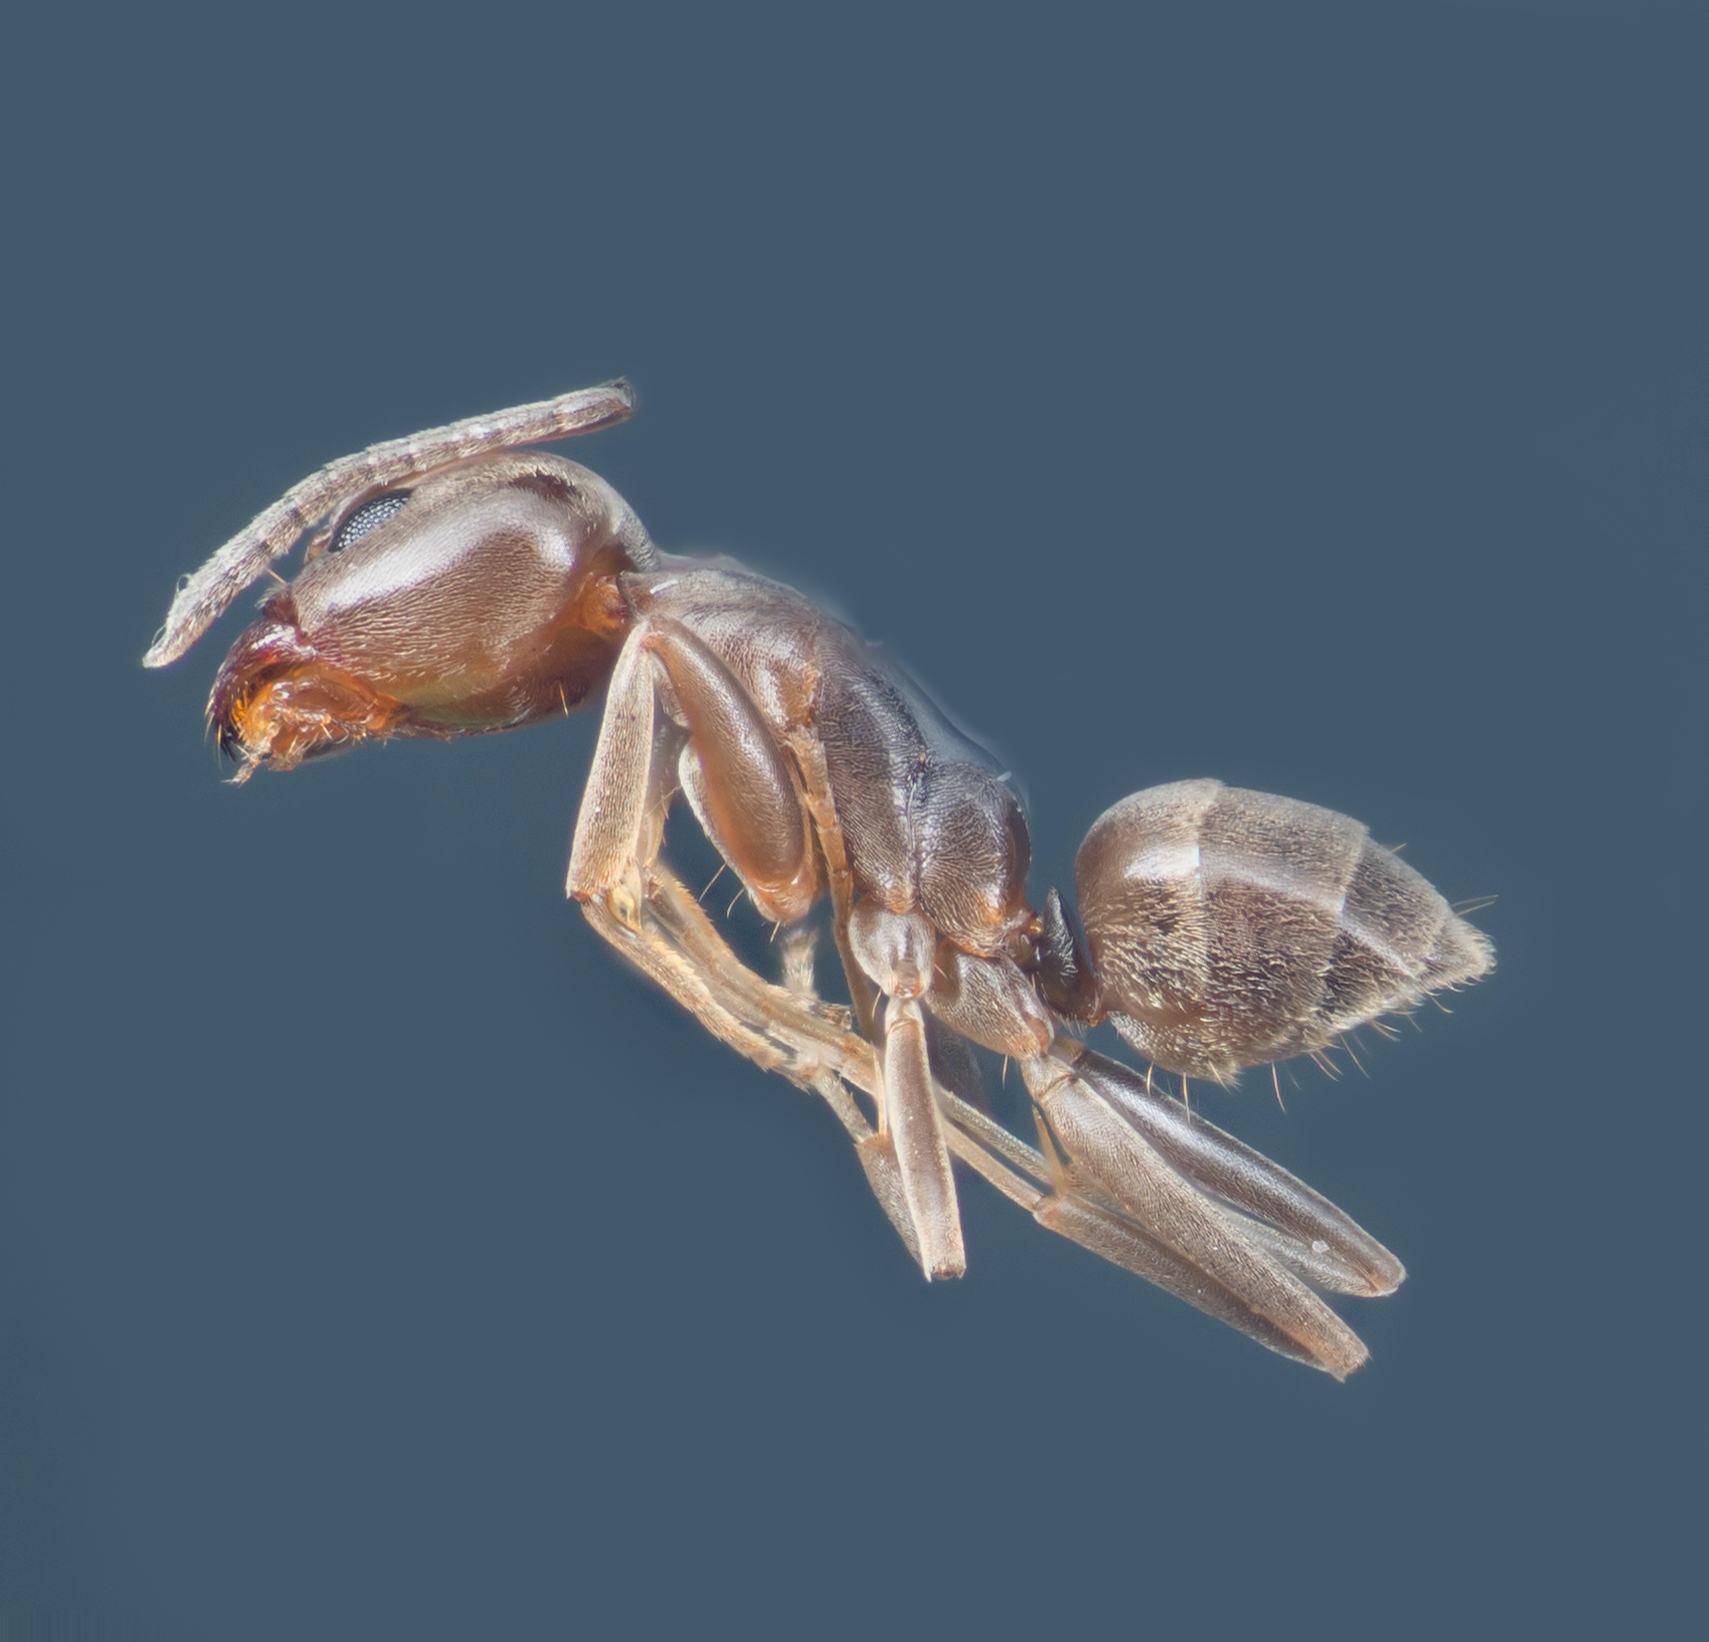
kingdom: Animalia
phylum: Arthropoda
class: Insecta
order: Hymenoptera
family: Formicidae
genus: Linepithema
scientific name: Linepithema humile
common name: Argentine ant
